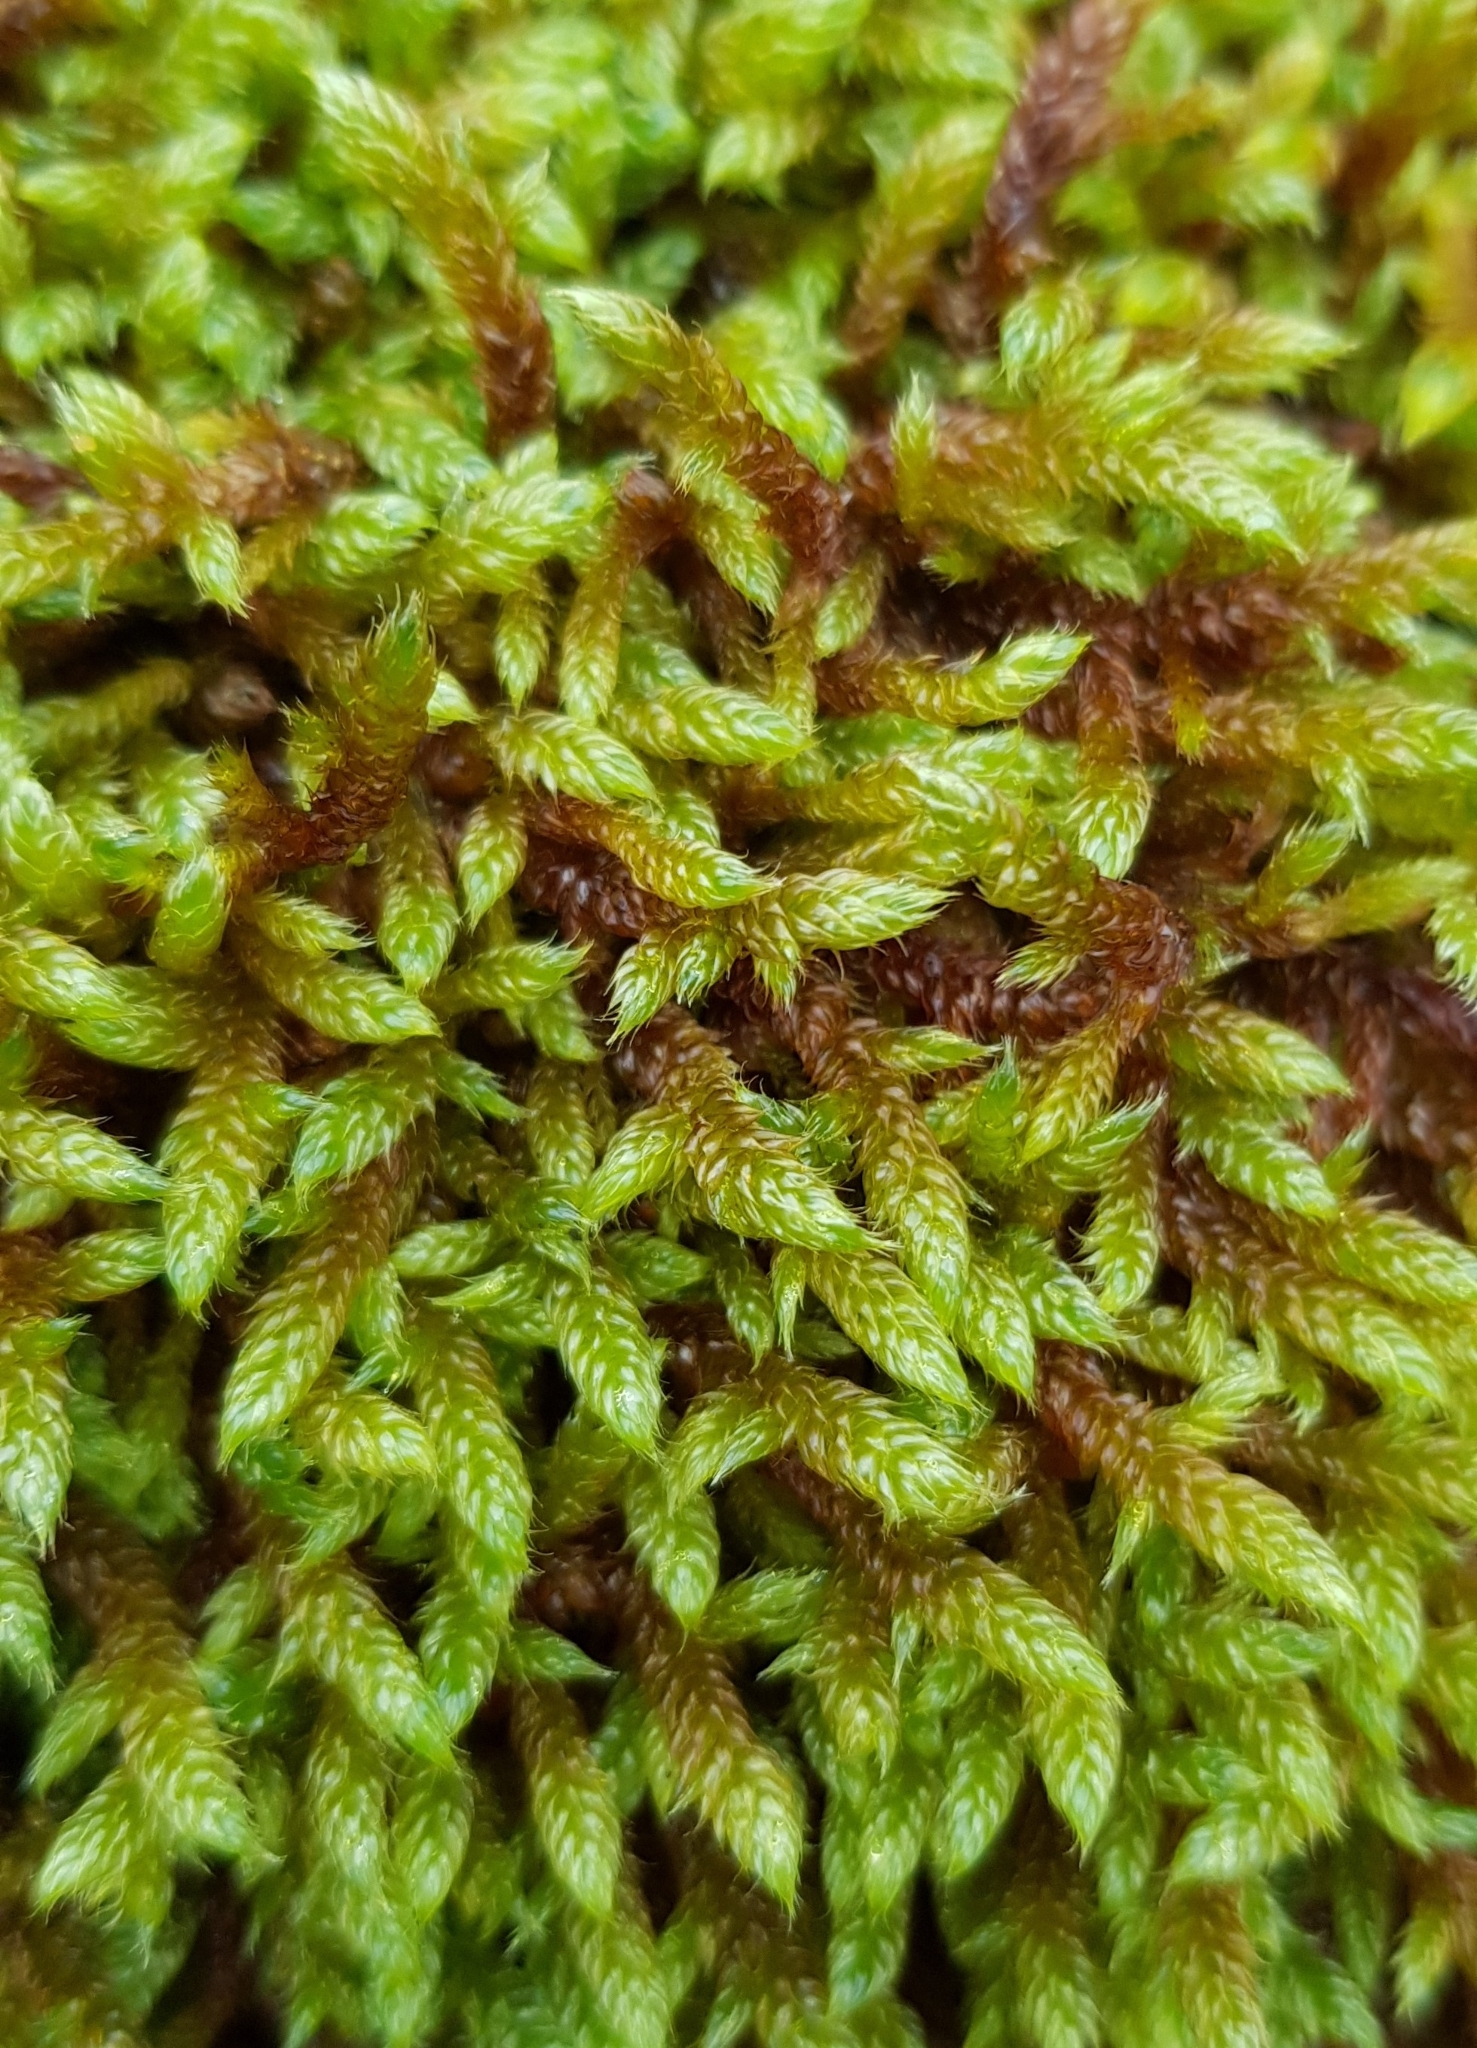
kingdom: Plantae
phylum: Bryophyta
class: Bryopsida
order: Hypnales
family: Hypnaceae
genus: Hypnum
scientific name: Hypnum cupressiforme
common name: Cypress-leaved plait-moss
